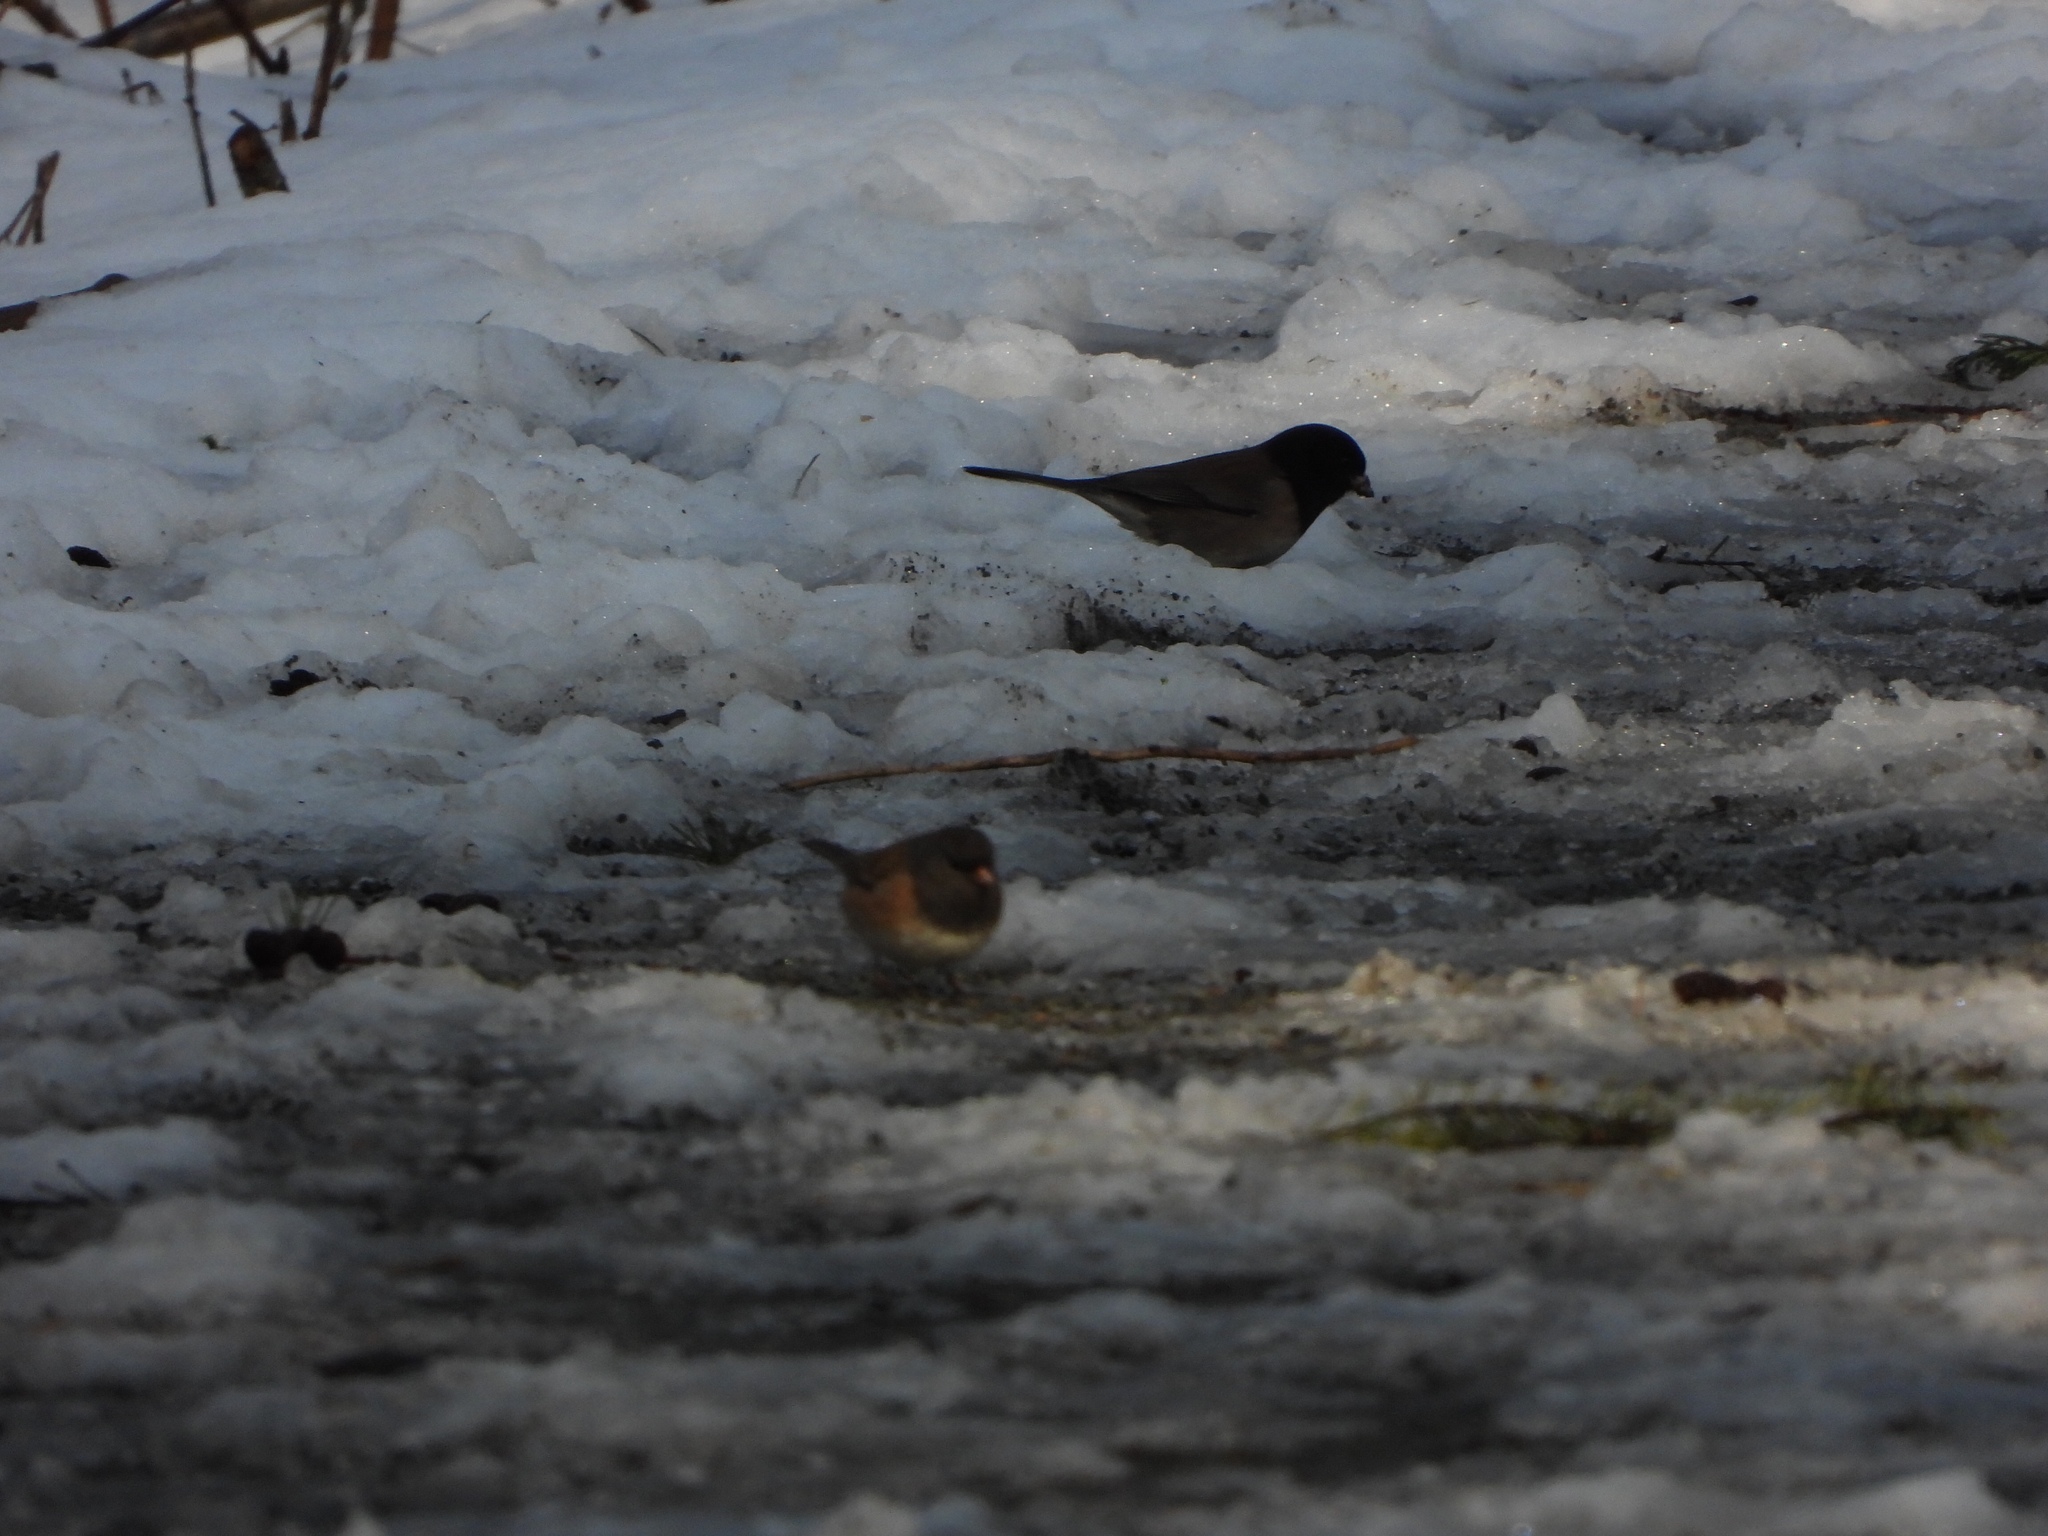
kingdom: Animalia
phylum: Chordata
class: Aves
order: Passeriformes
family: Passerellidae
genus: Junco
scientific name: Junco hyemalis
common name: Dark-eyed junco
